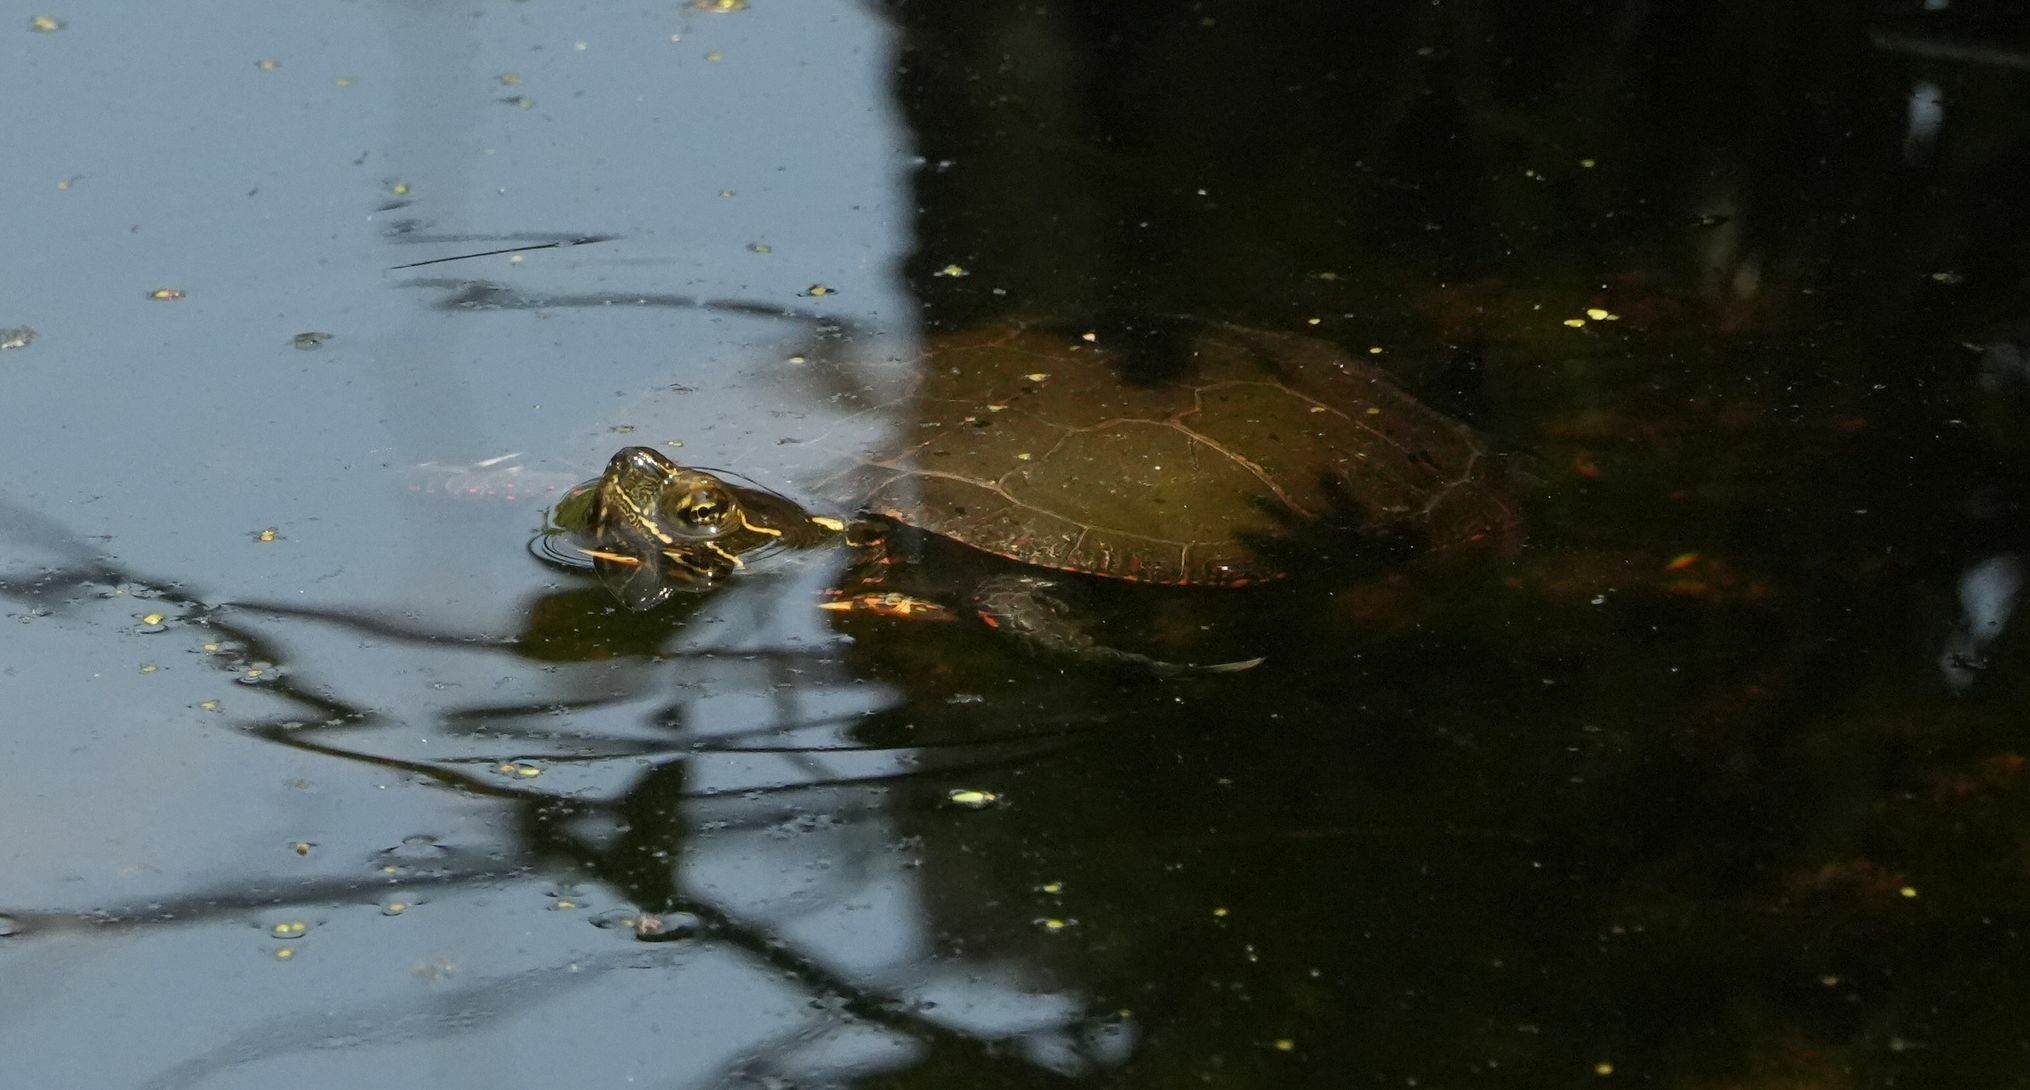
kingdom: Animalia
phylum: Chordata
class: Testudines
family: Emydidae
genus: Chrysemys
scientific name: Chrysemys picta
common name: Painted turtle
